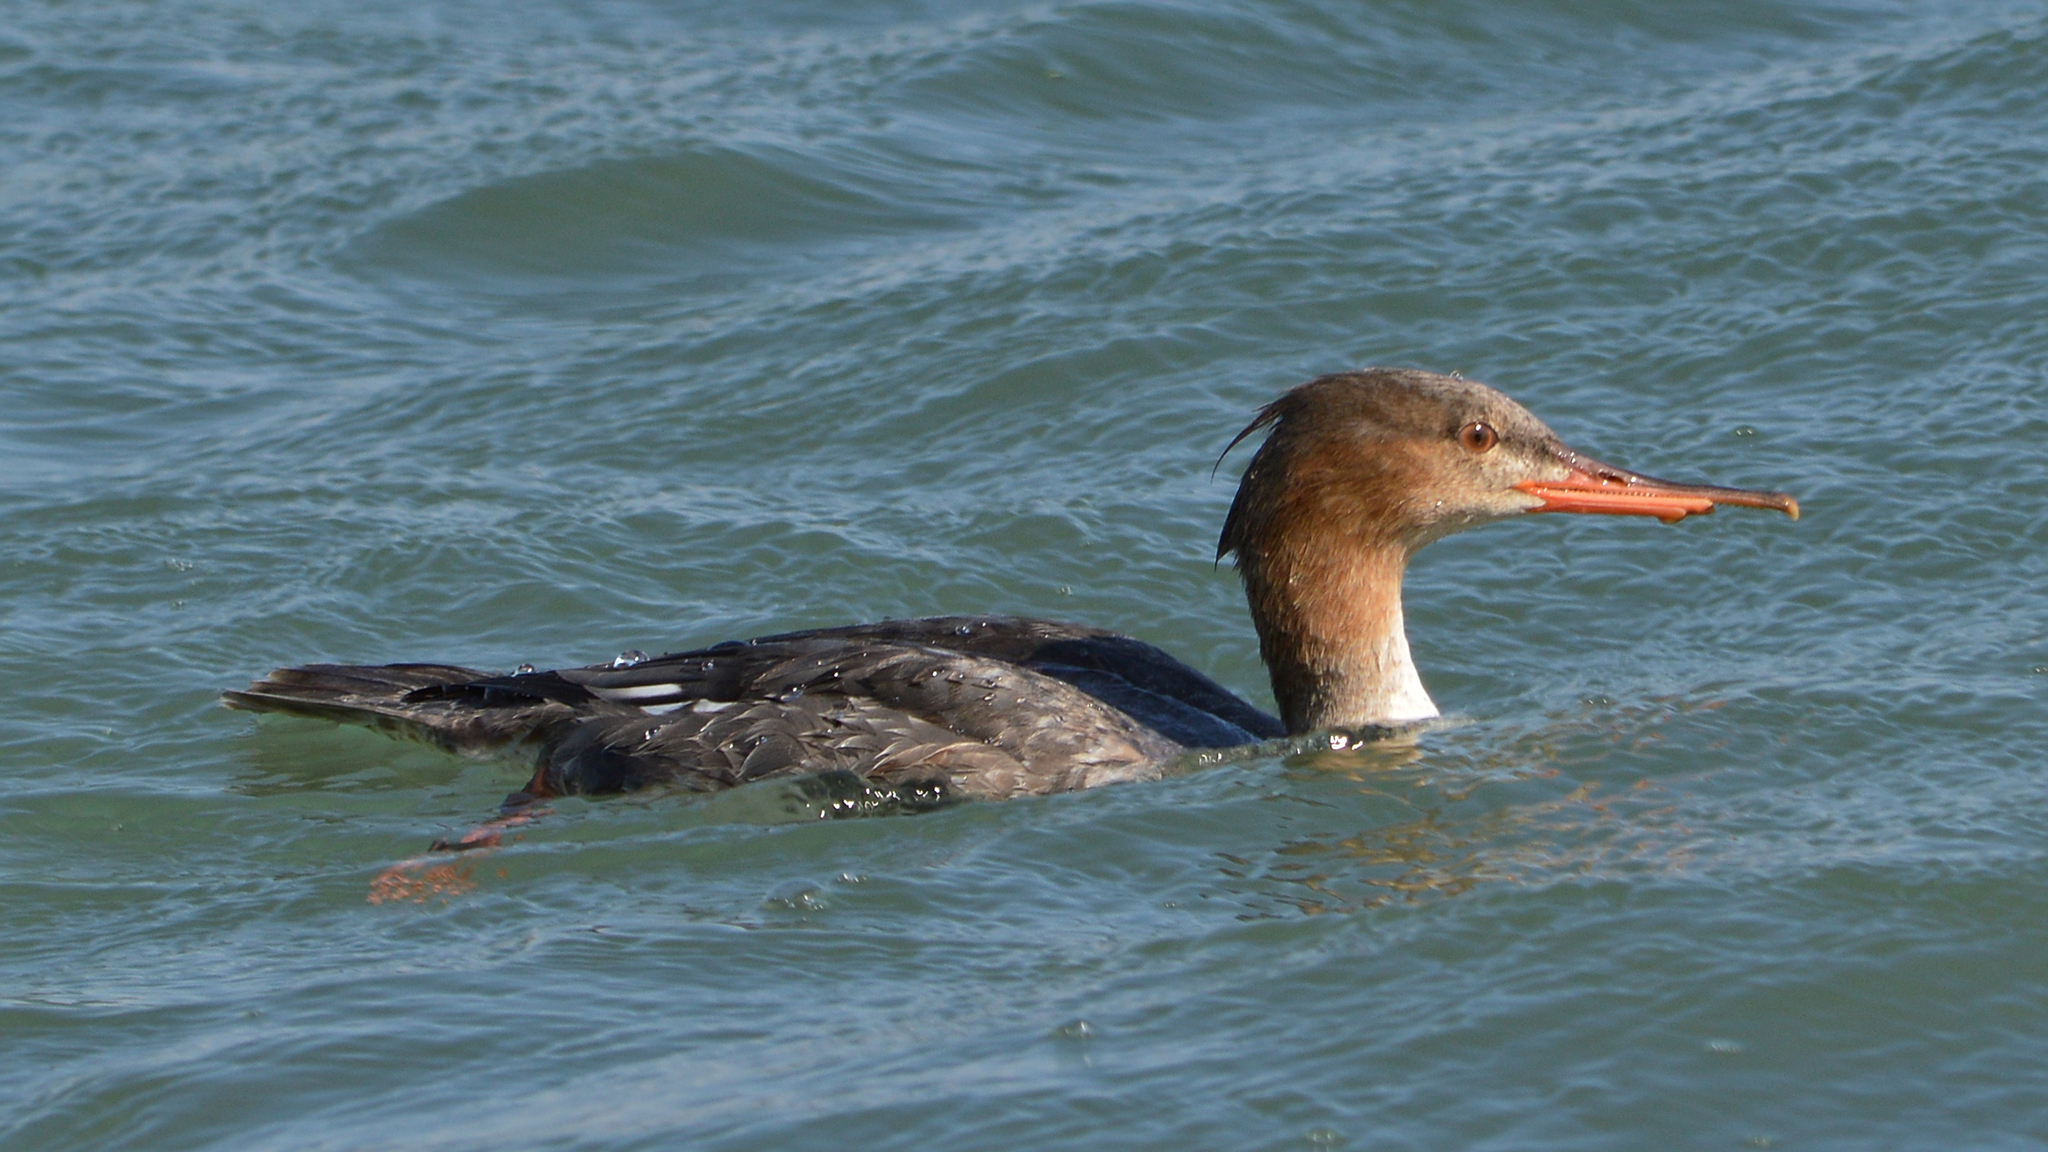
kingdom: Animalia
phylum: Chordata
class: Aves
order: Anseriformes
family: Anatidae
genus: Mergus
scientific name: Mergus serrator
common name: Red-breasted merganser
